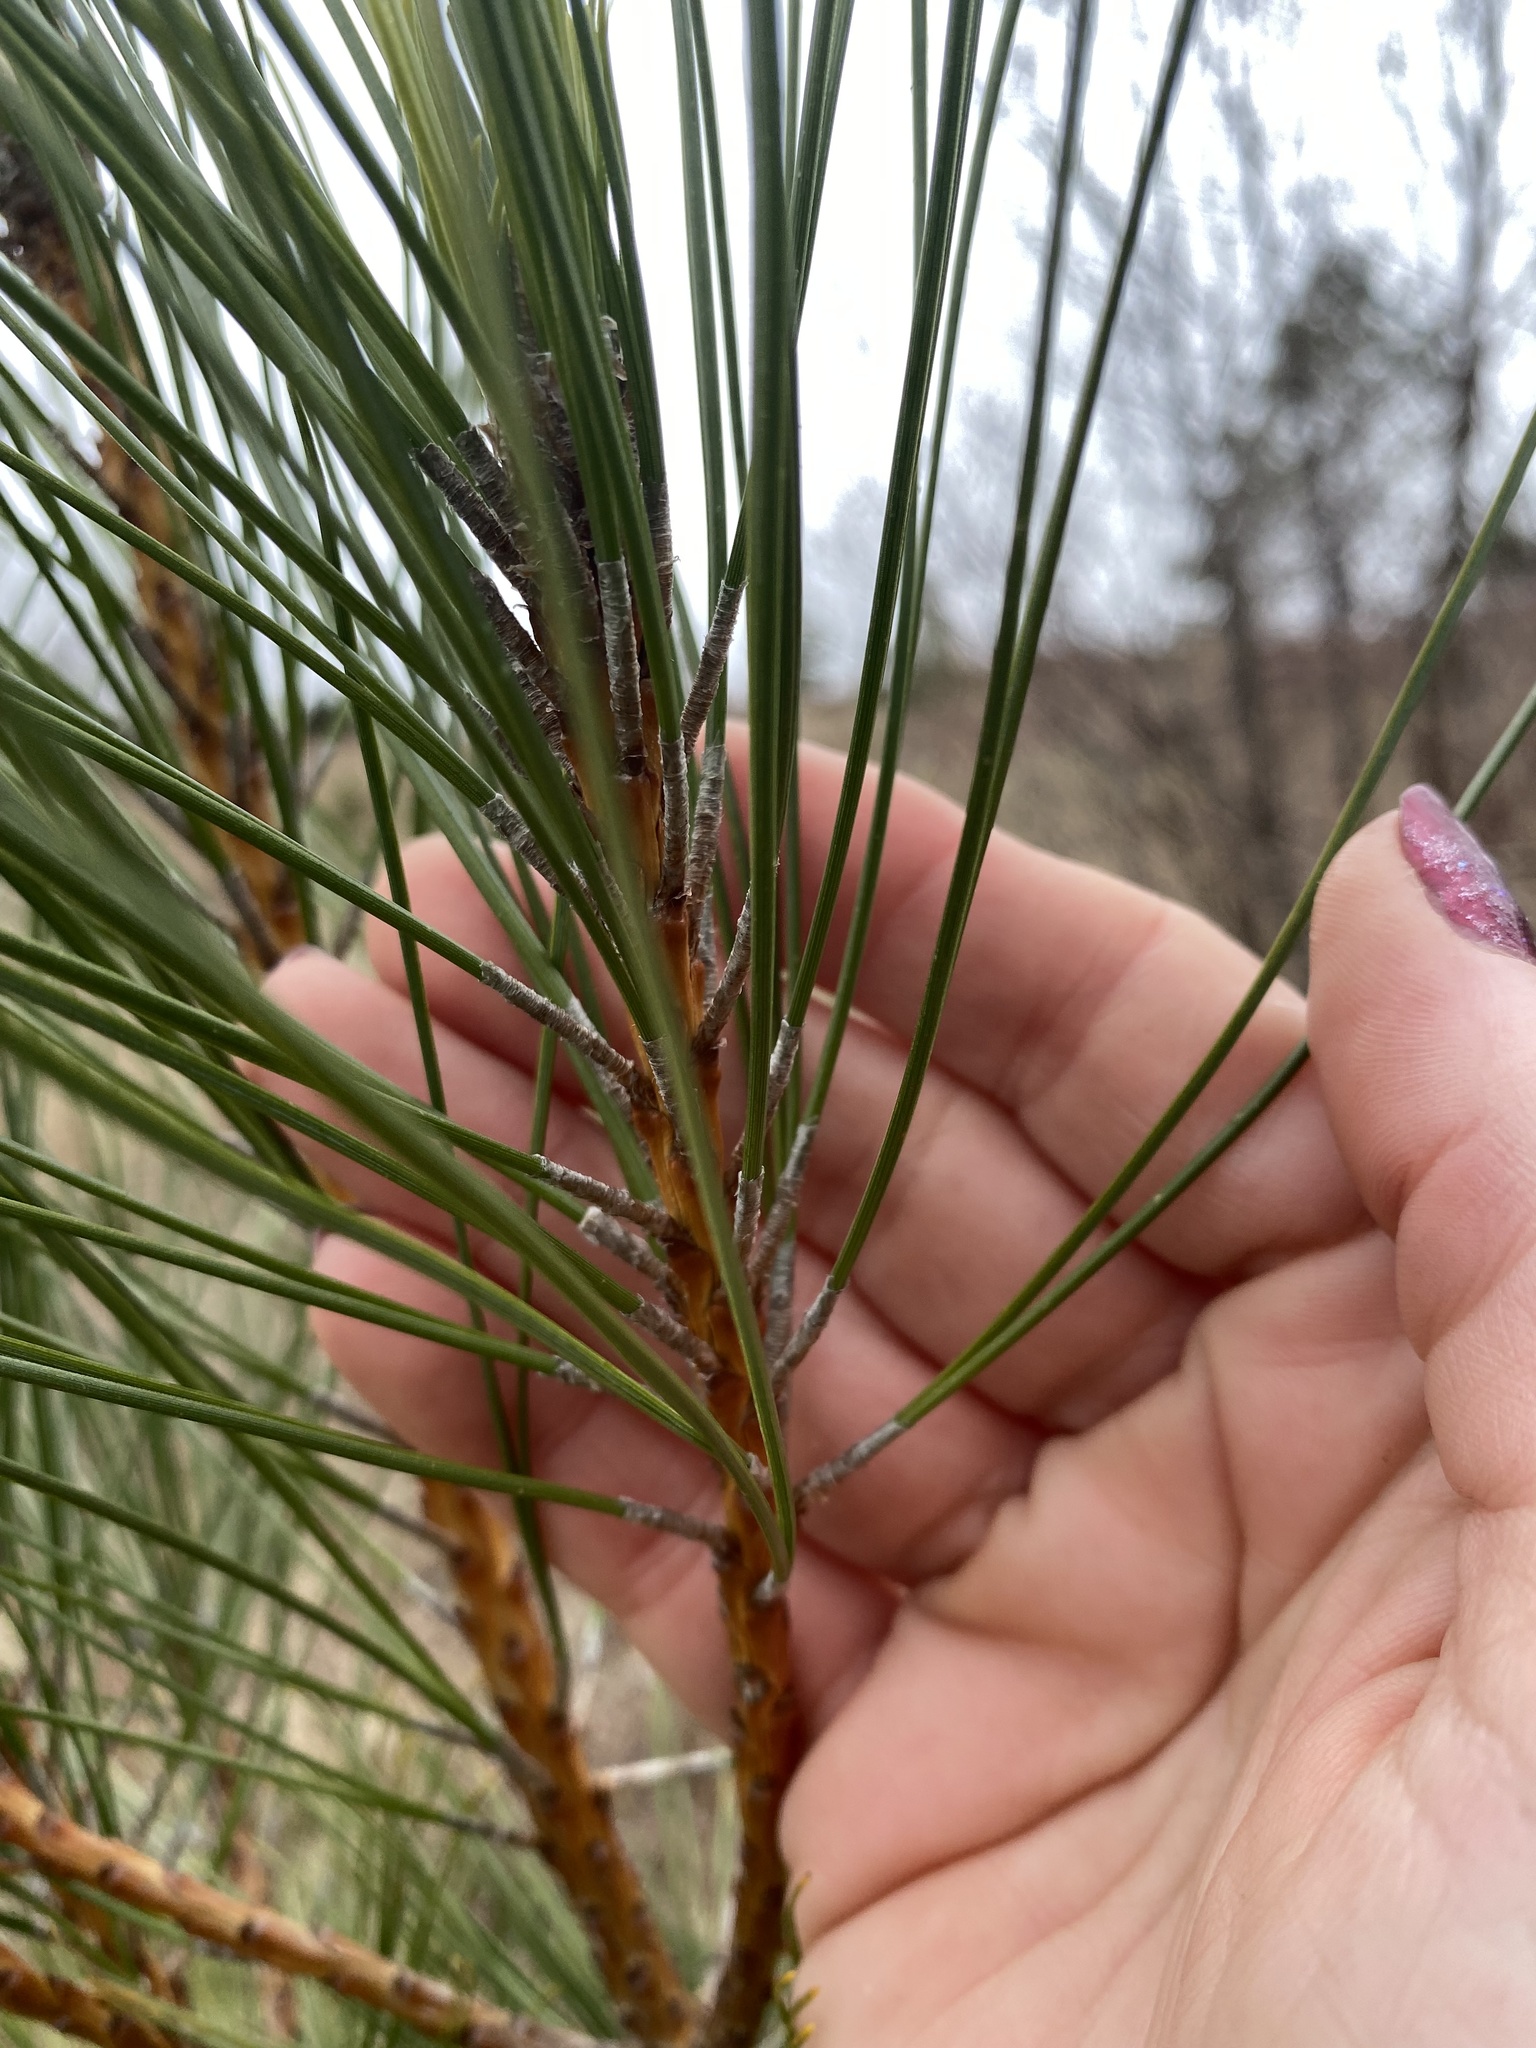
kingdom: Plantae
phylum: Tracheophyta
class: Pinopsida
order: Pinales
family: Pinaceae
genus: Pinus
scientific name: Pinus resinosa
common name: Norway pine
